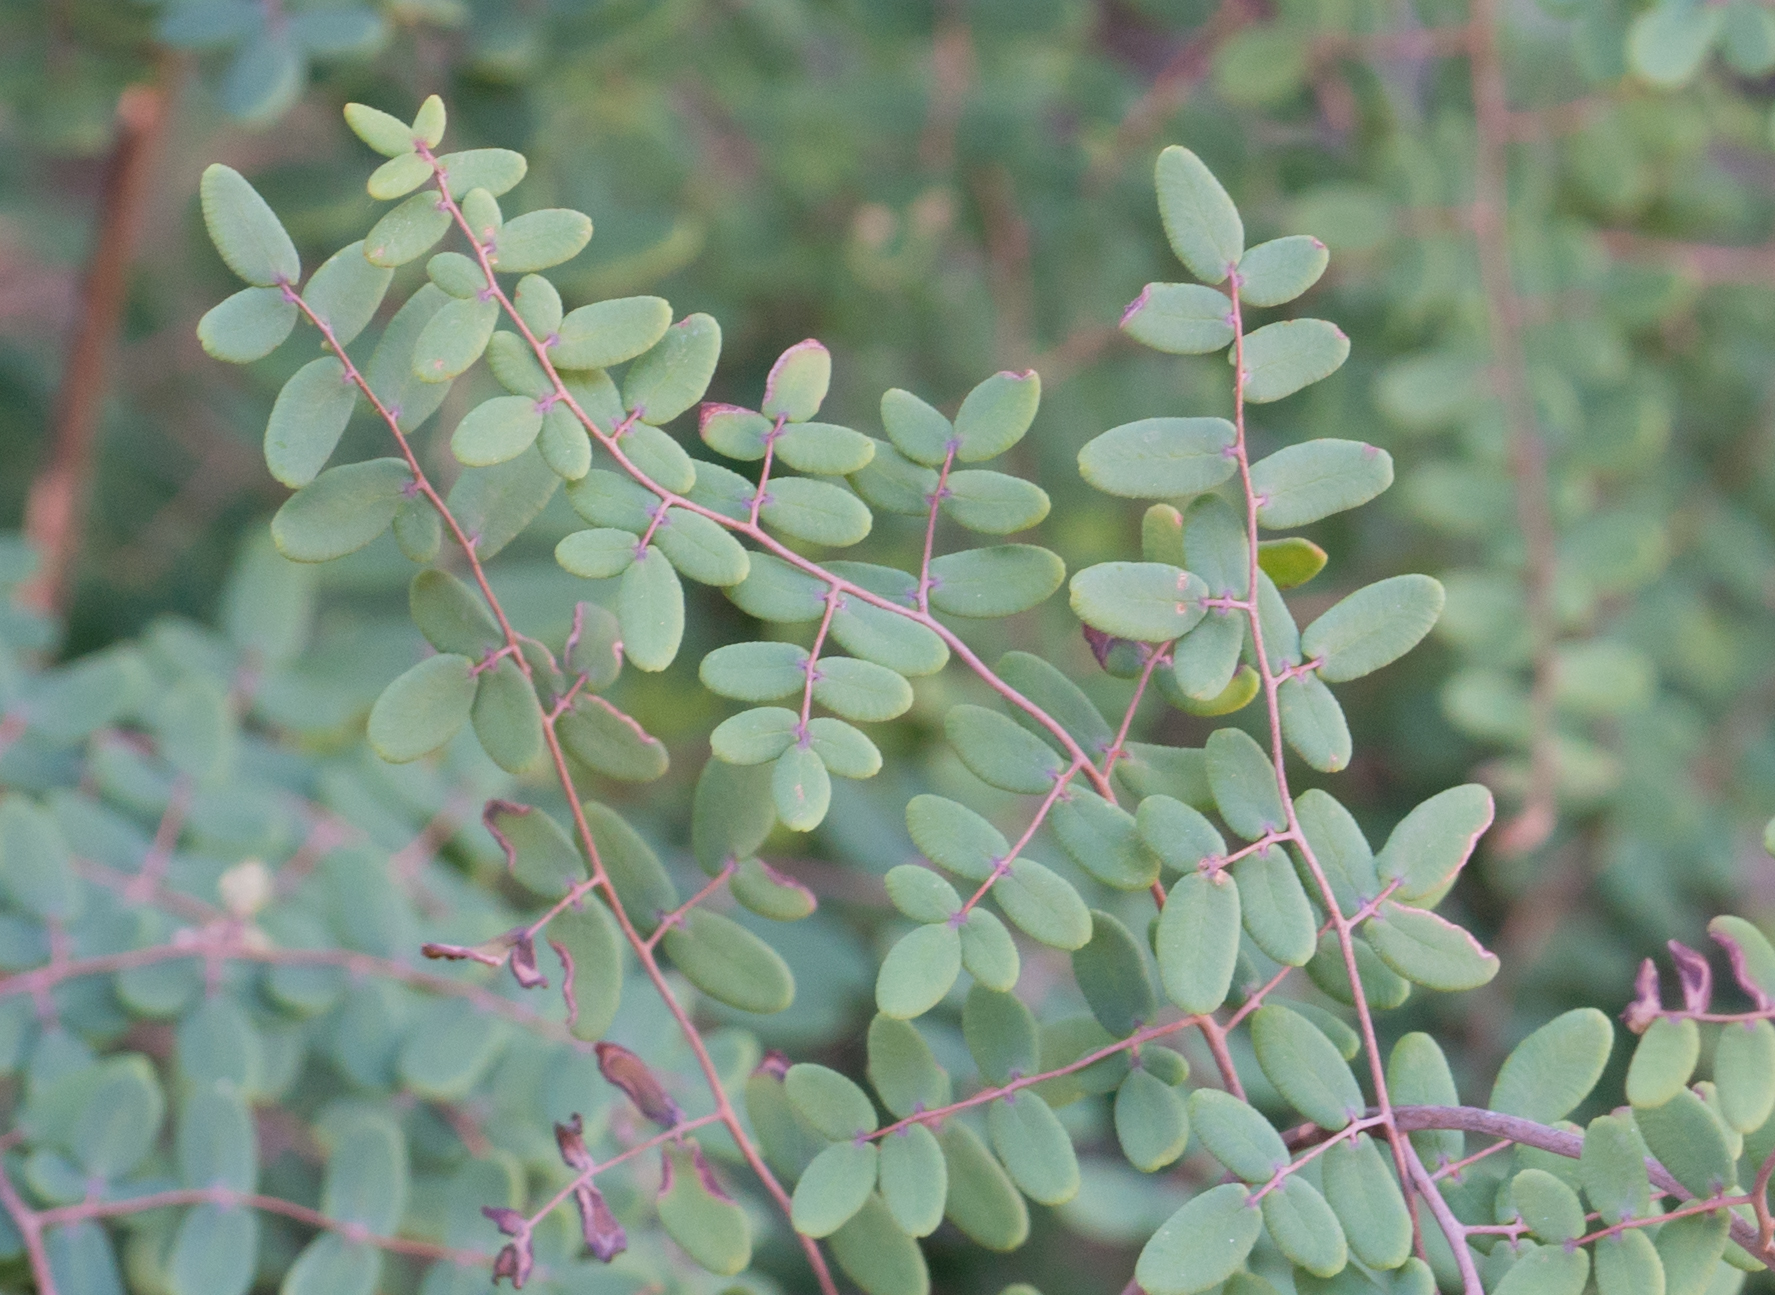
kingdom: Plantae
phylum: Tracheophyta
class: Polypodiopsida
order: Polypodiales
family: Pteridaceae
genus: Pellaea
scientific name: Pellaea andromedifolia
